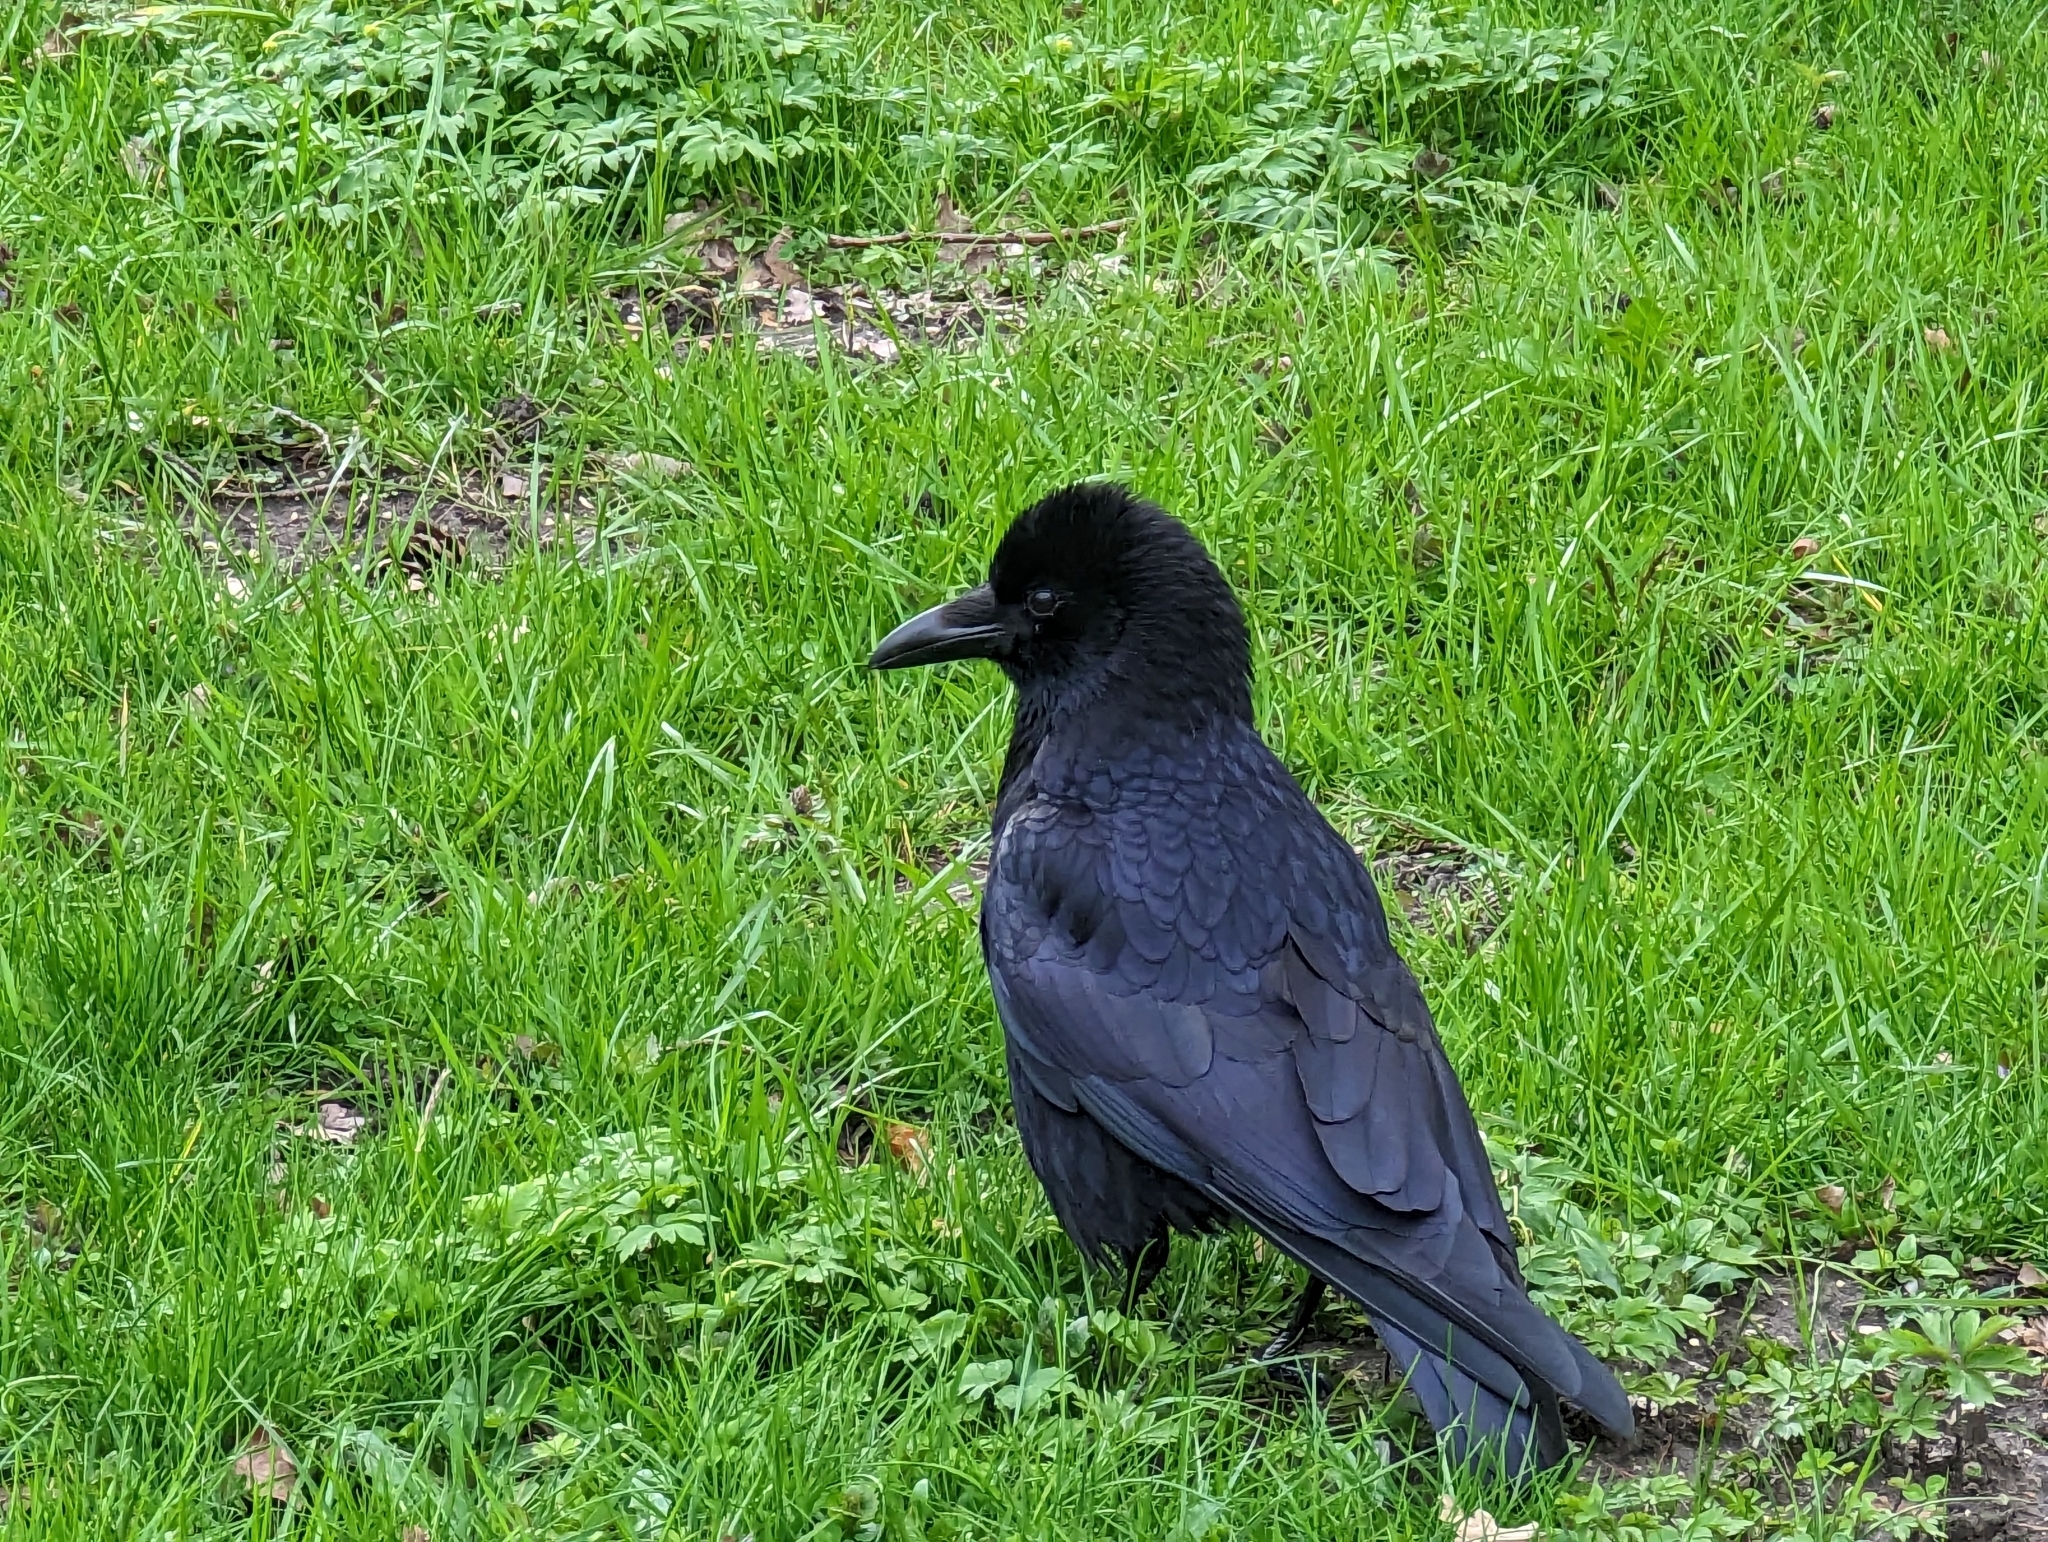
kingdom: Animalia
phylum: Chordata
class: Aves
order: Passeriformes
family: Corvidae
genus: Corvus
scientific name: Corvus corone
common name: Carrion crow
